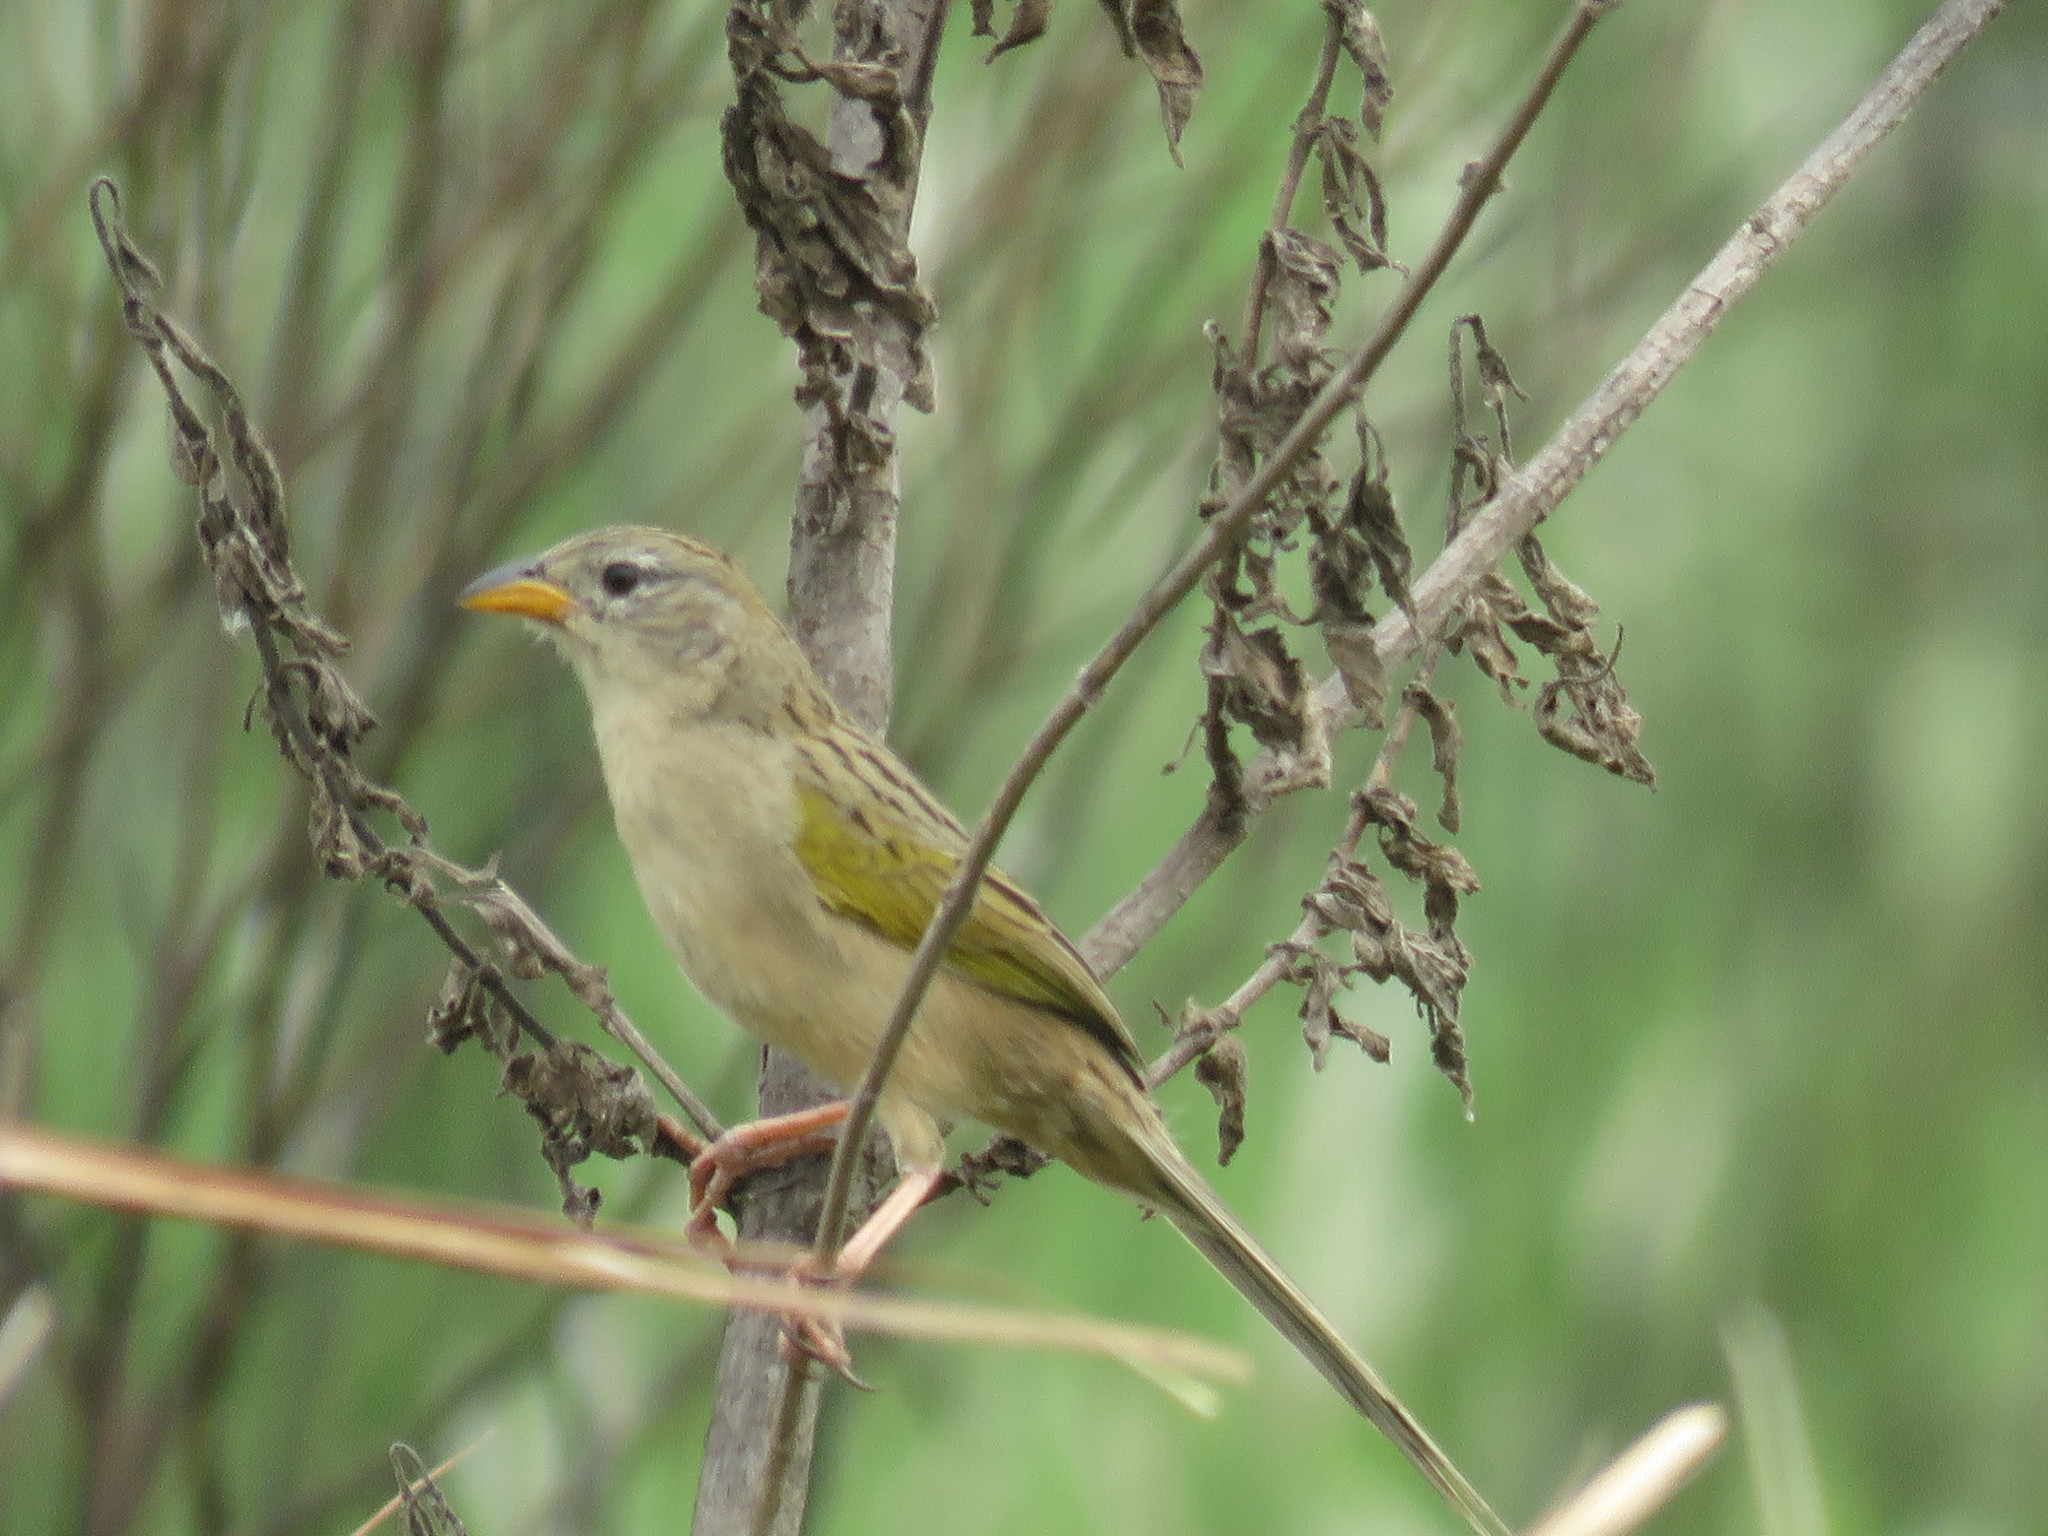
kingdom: Animalia
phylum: Chordata
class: Aves
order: Passeriformes
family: Thraupidae
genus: Emberizoides
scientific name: Emberizoides herbicola
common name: Wedge-tailed grass-finch
